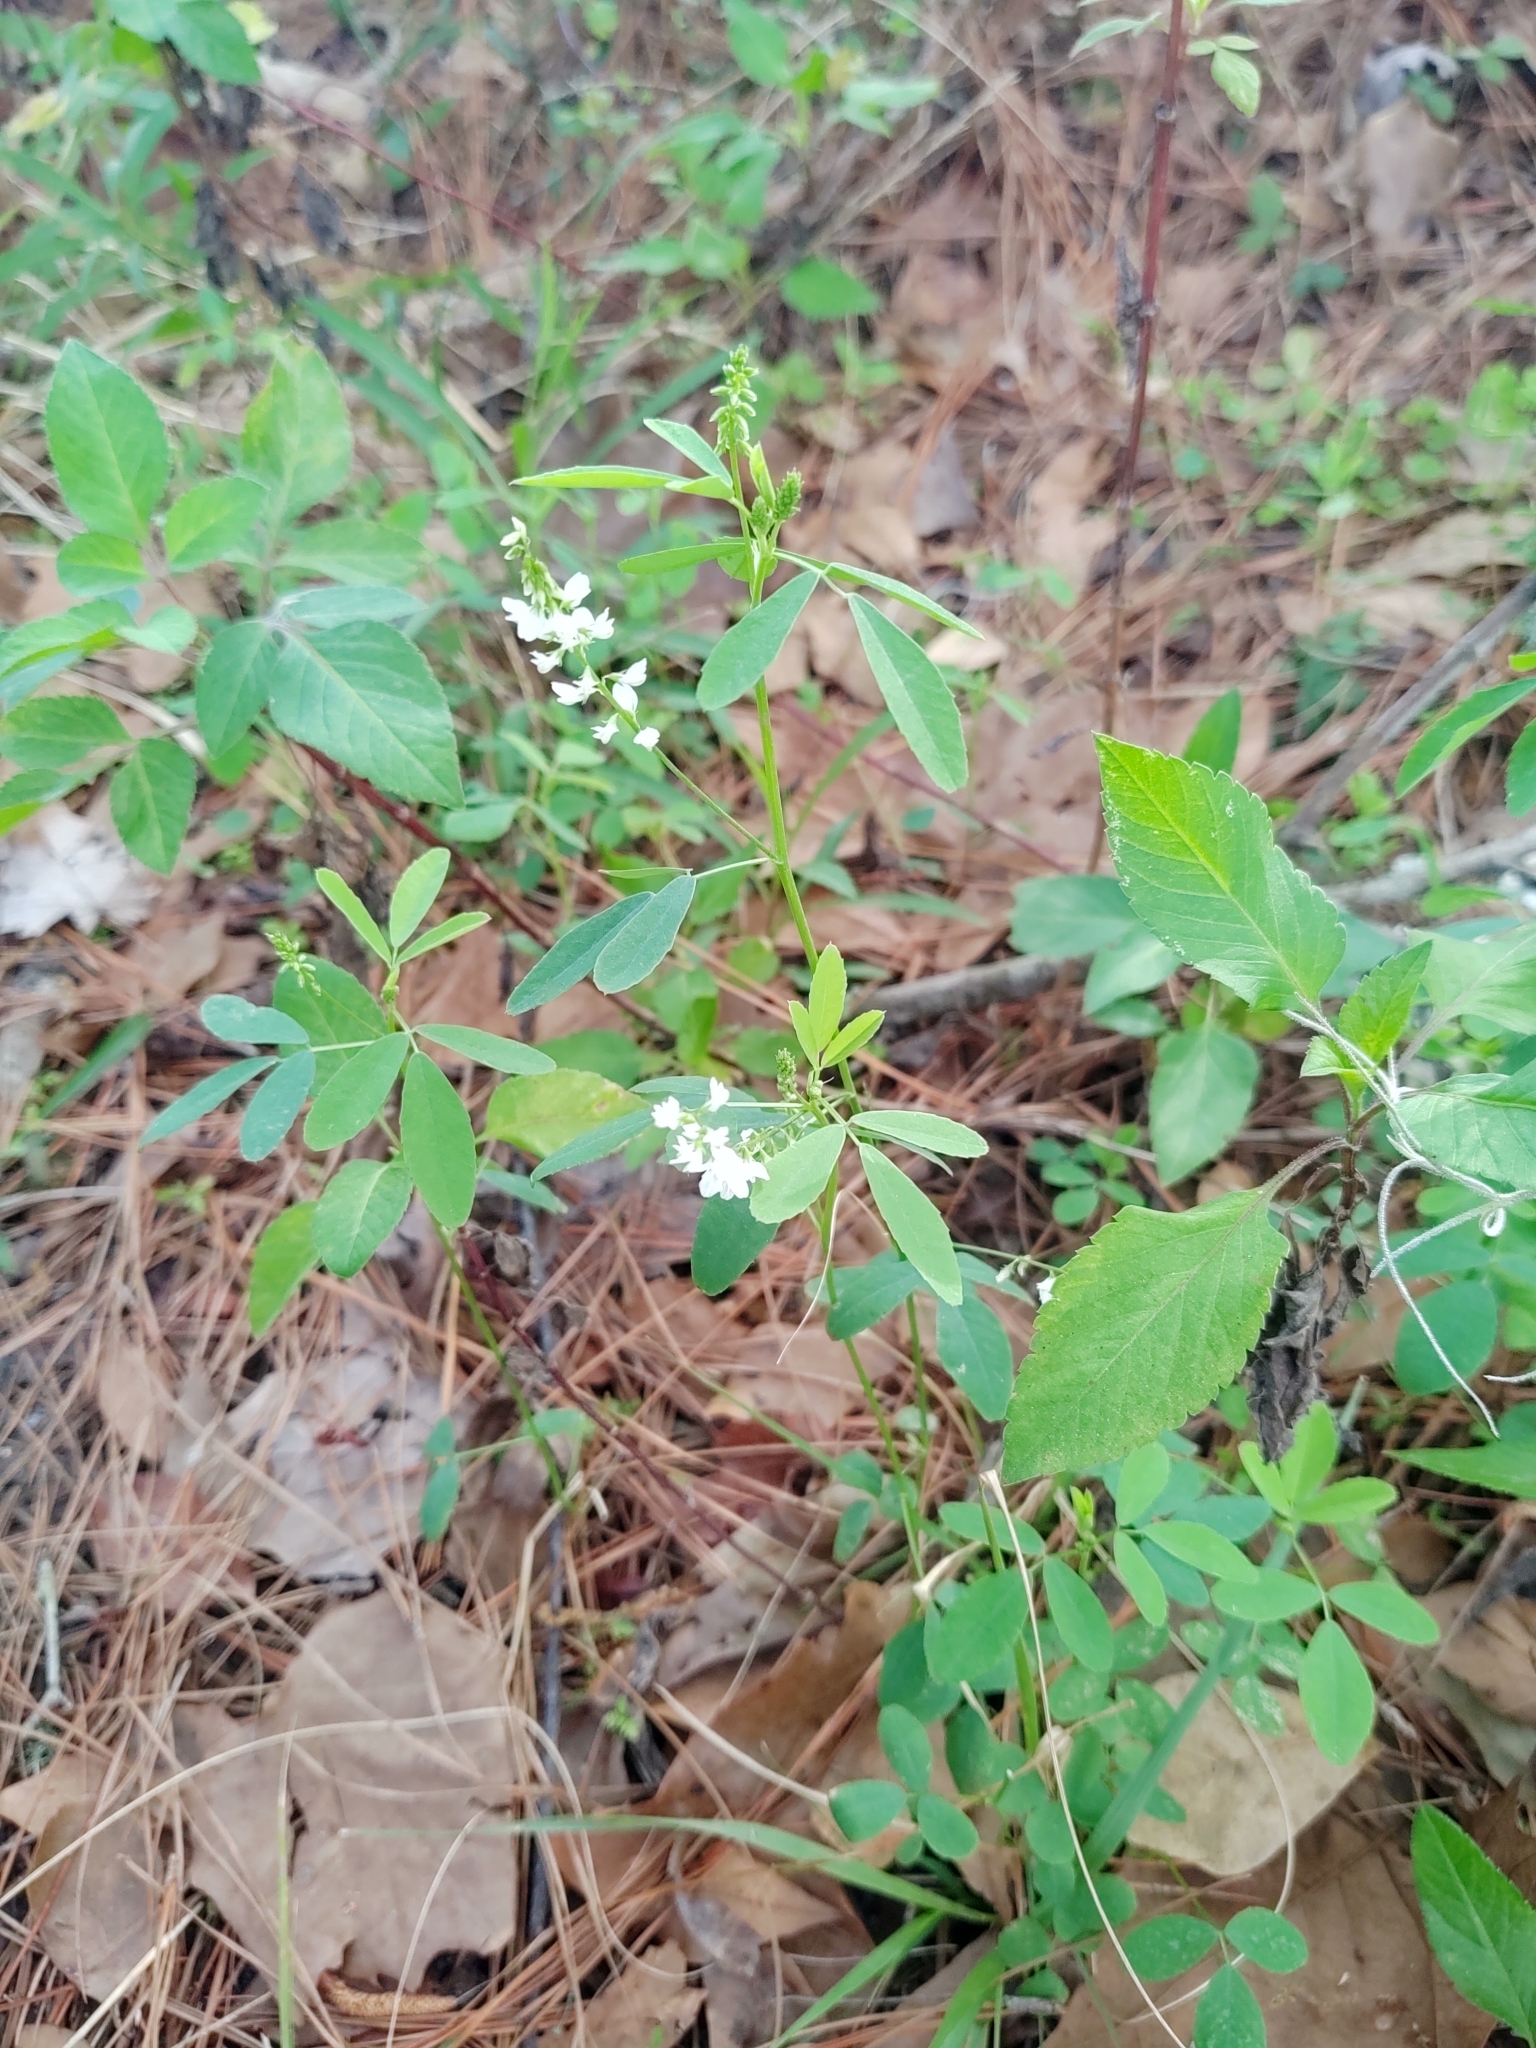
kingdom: Plantae
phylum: Tracheophyta
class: Magnoliopsida
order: Fabales
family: Fabaceae
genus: Melilotus
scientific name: Melilotus albus
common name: White melilot
